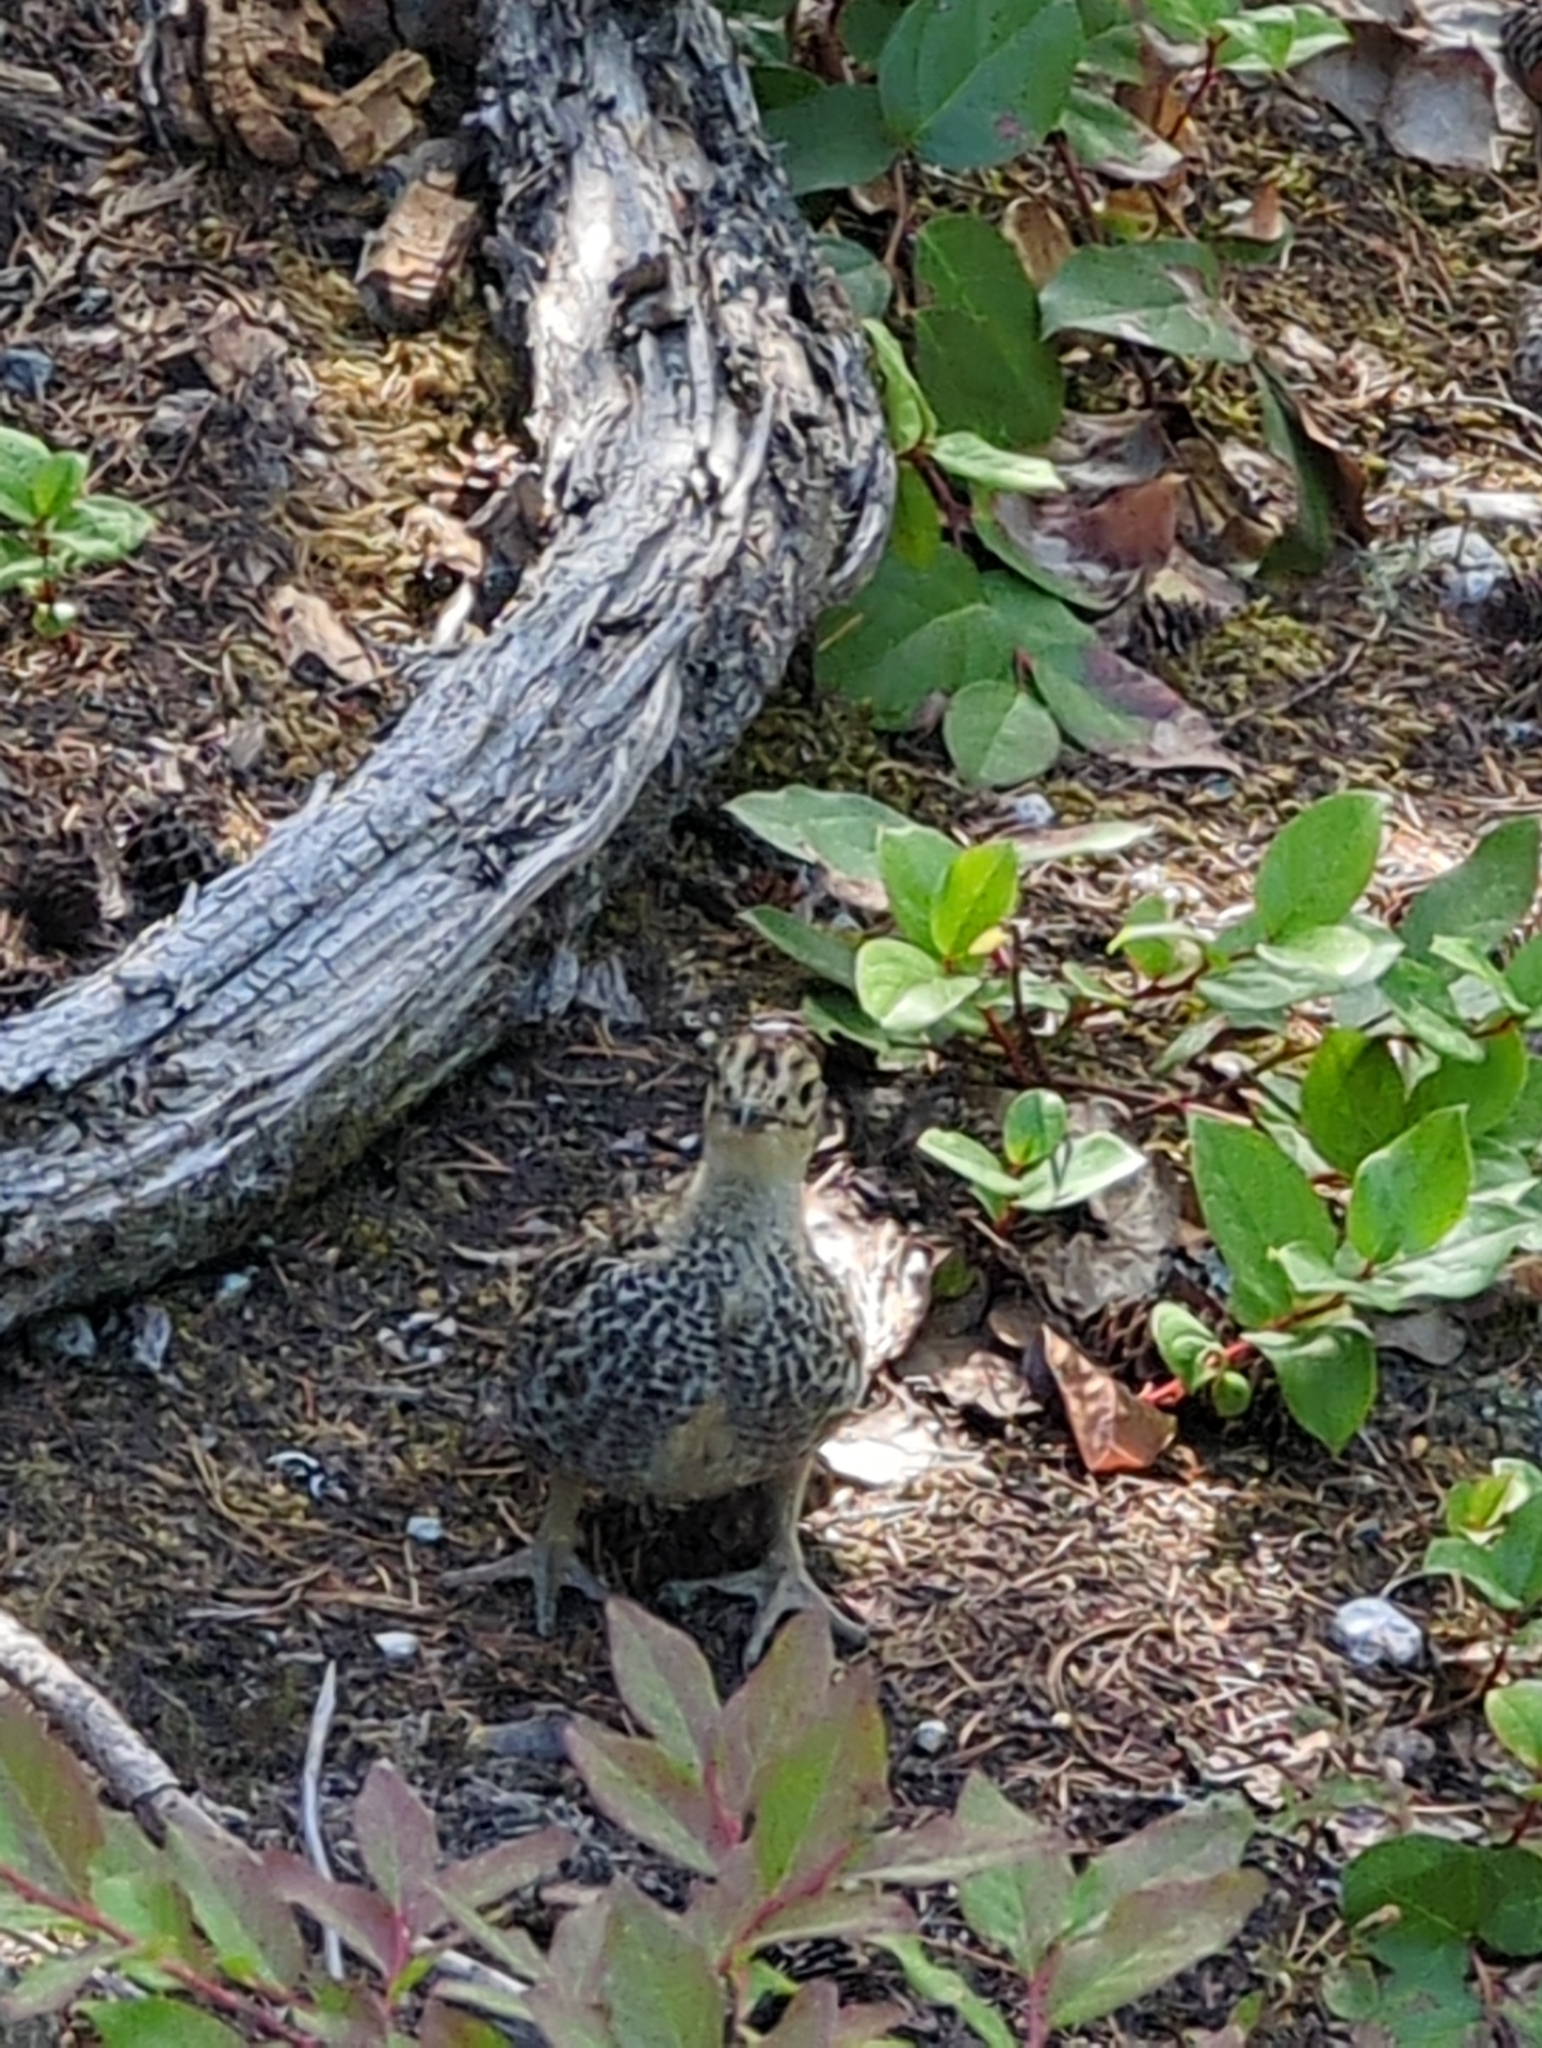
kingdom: Animalia
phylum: Chordata
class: Aves
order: Galliformes
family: Phasianidae
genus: Dendragapus
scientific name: Dendragapus fuliginosus
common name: Sooty grouse
